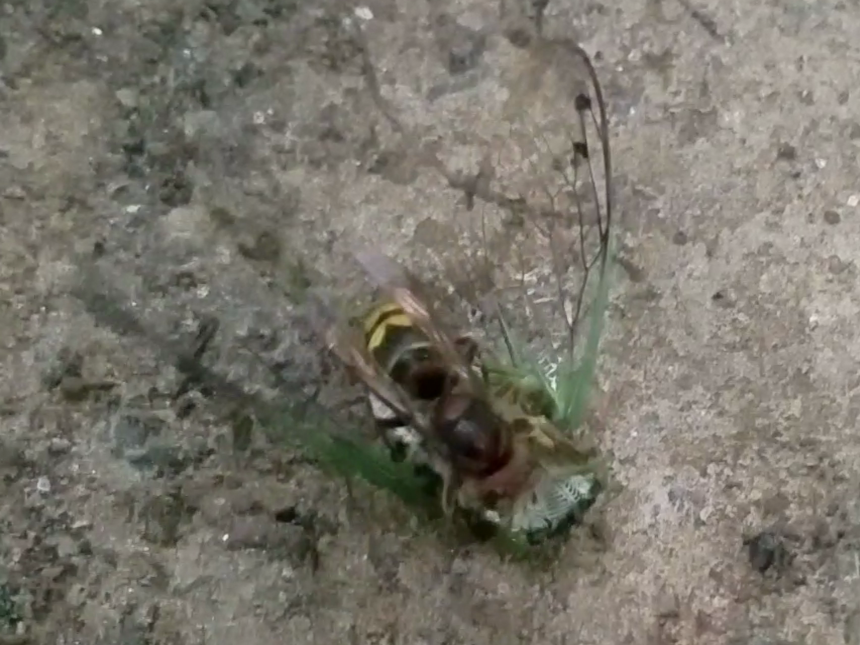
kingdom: Animalia
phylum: Arthropoda
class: Insecta
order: Hymenoptera
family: Vespidae
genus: Vespa
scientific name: Vespa crabro
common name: Hornet
